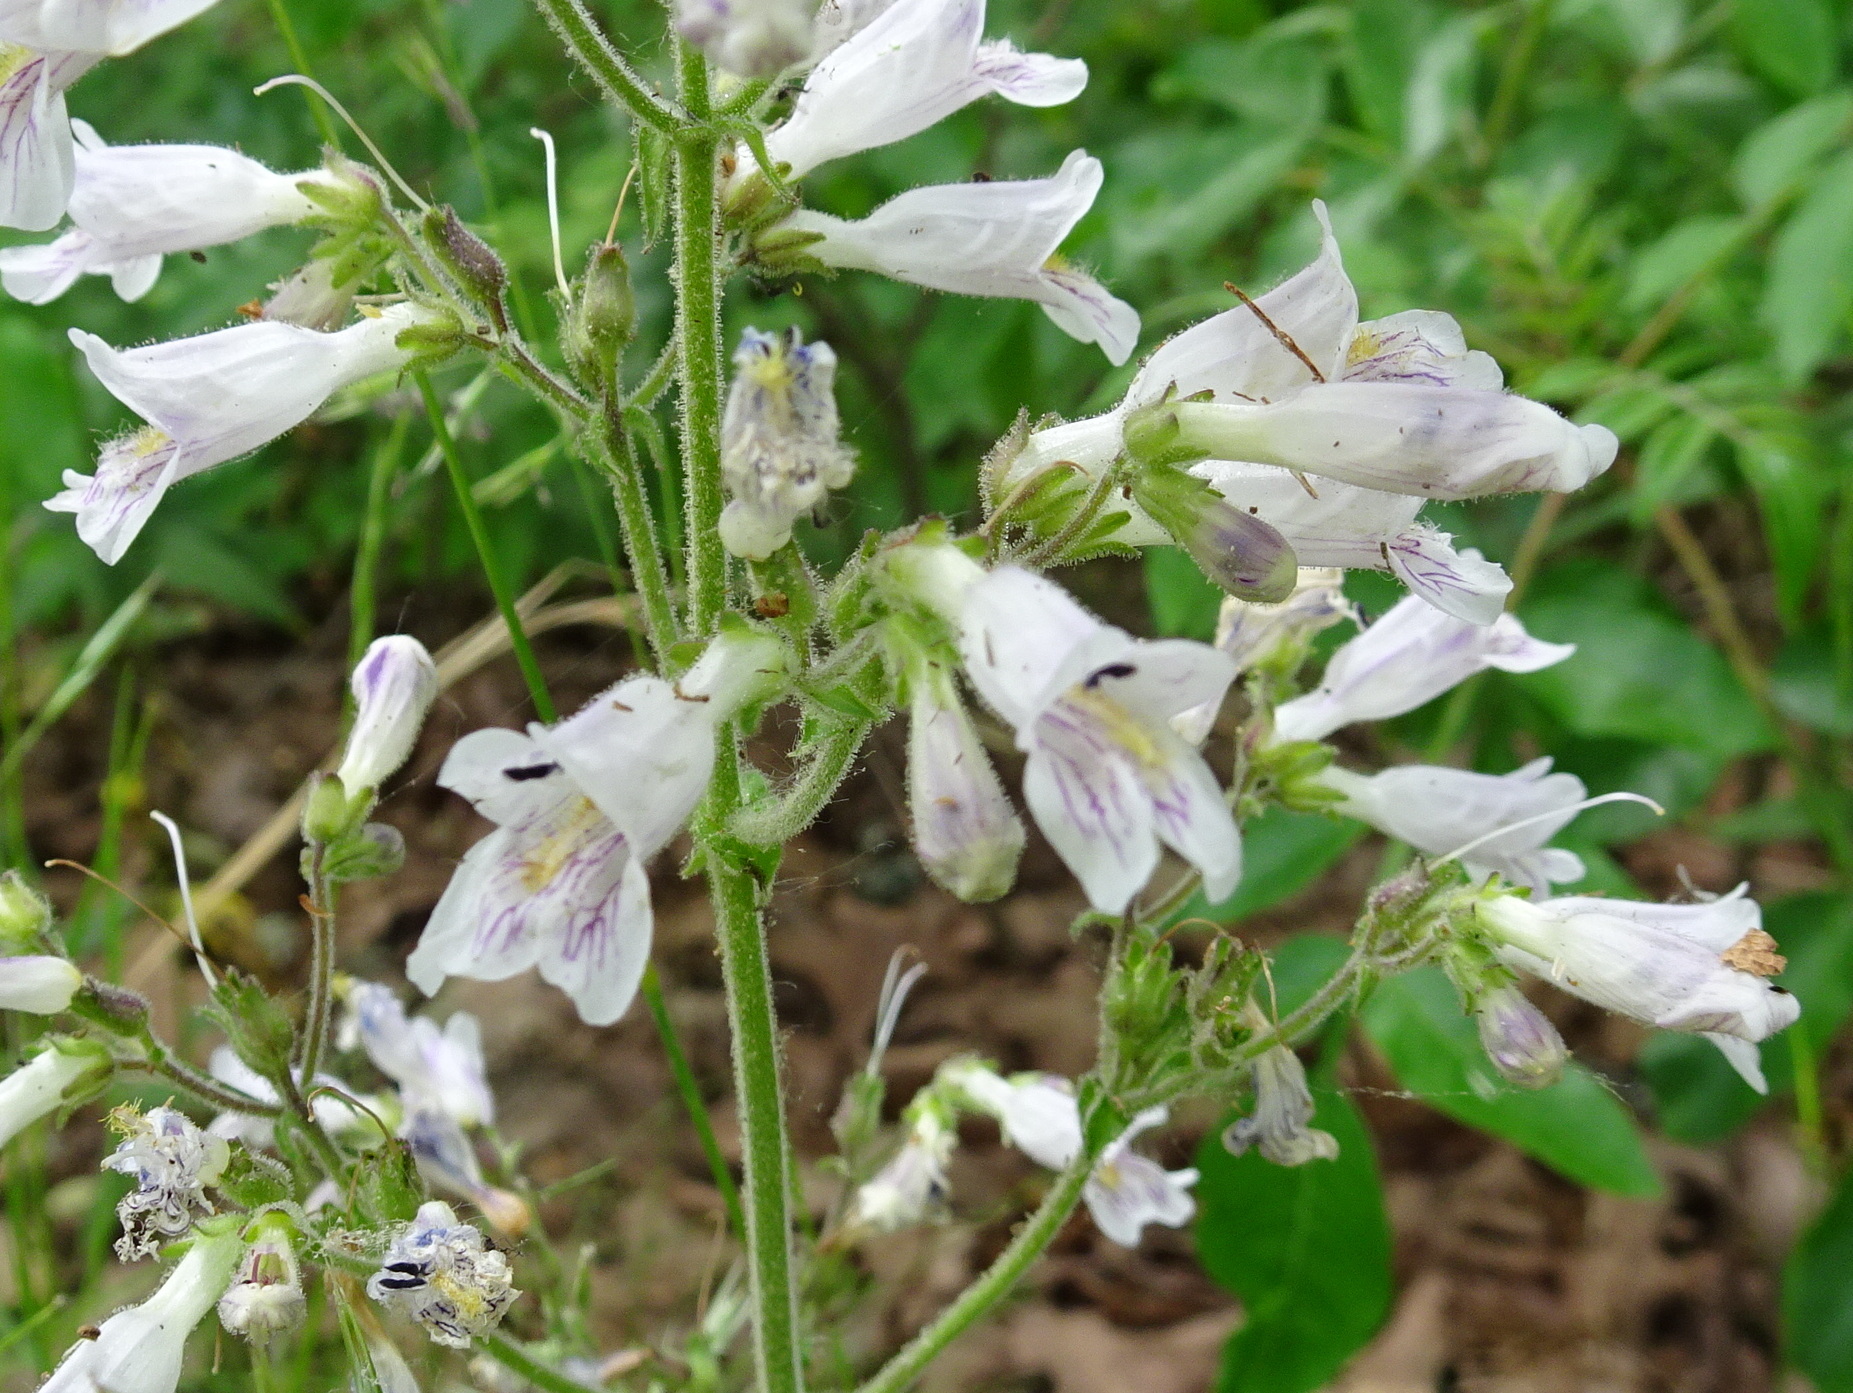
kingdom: Plantae
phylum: Tracheophyta
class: Magnoliopsida
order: Lamiales
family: Plantaginaceae
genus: Penstemon
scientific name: Penstemon pallidus
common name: Pale beardtongue
